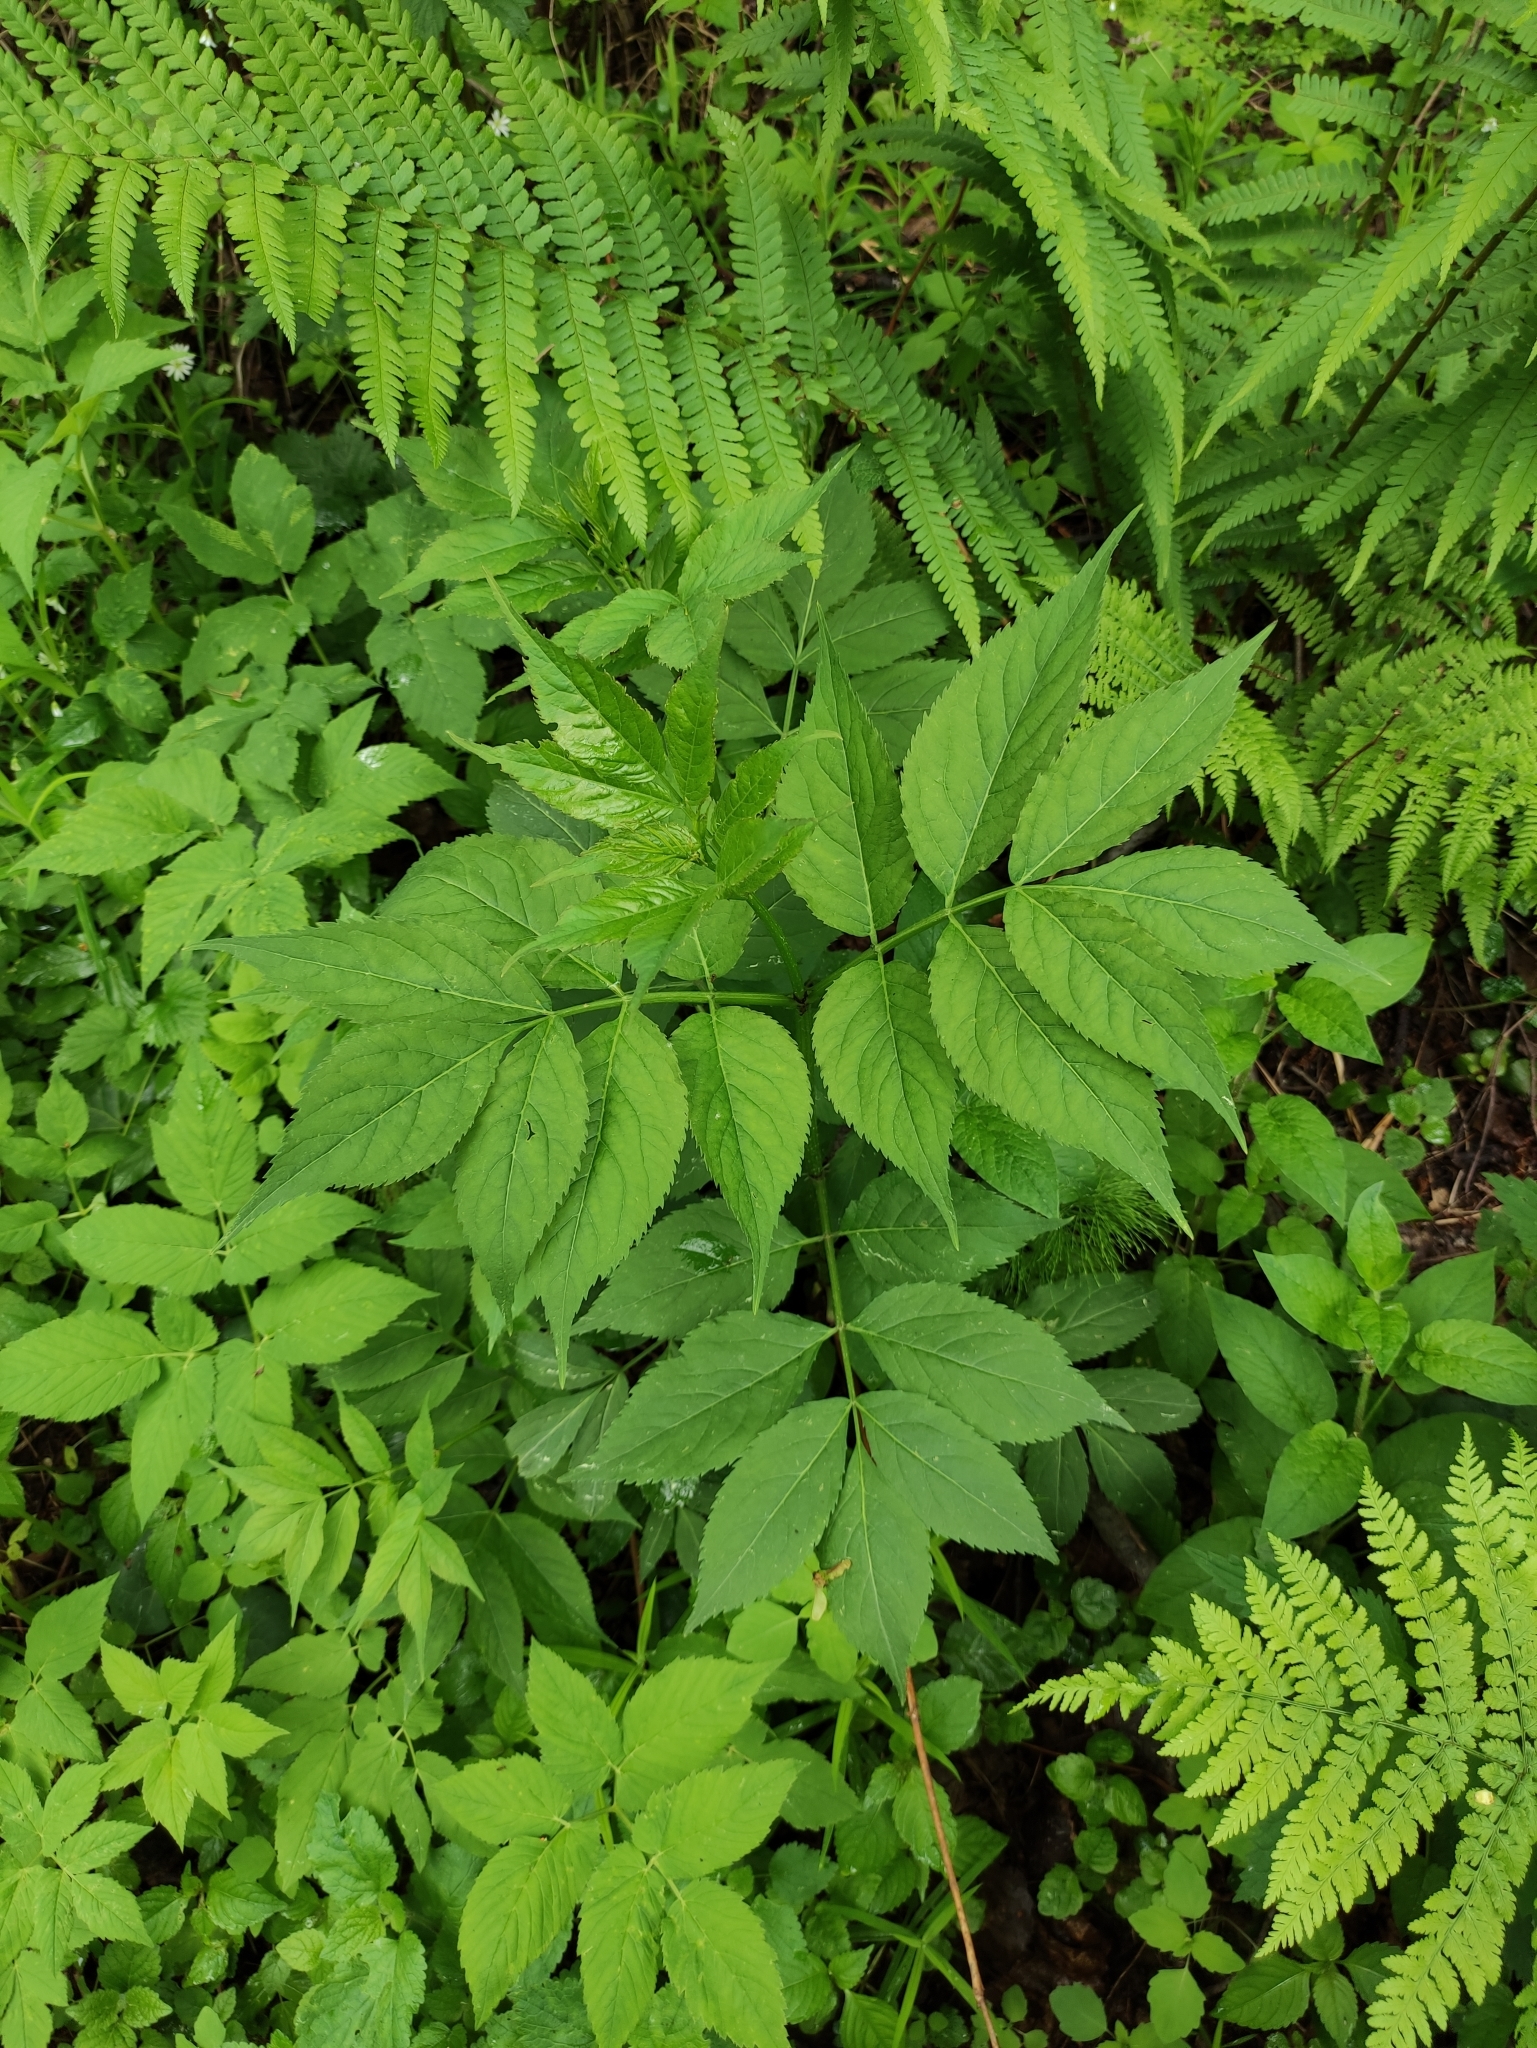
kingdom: Plantae
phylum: Tracheophyta
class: Magnoliopsida
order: Dipsacales
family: Viburnaceae
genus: Sambucus
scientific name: Sambucus racemosa
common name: Red-berried elder
